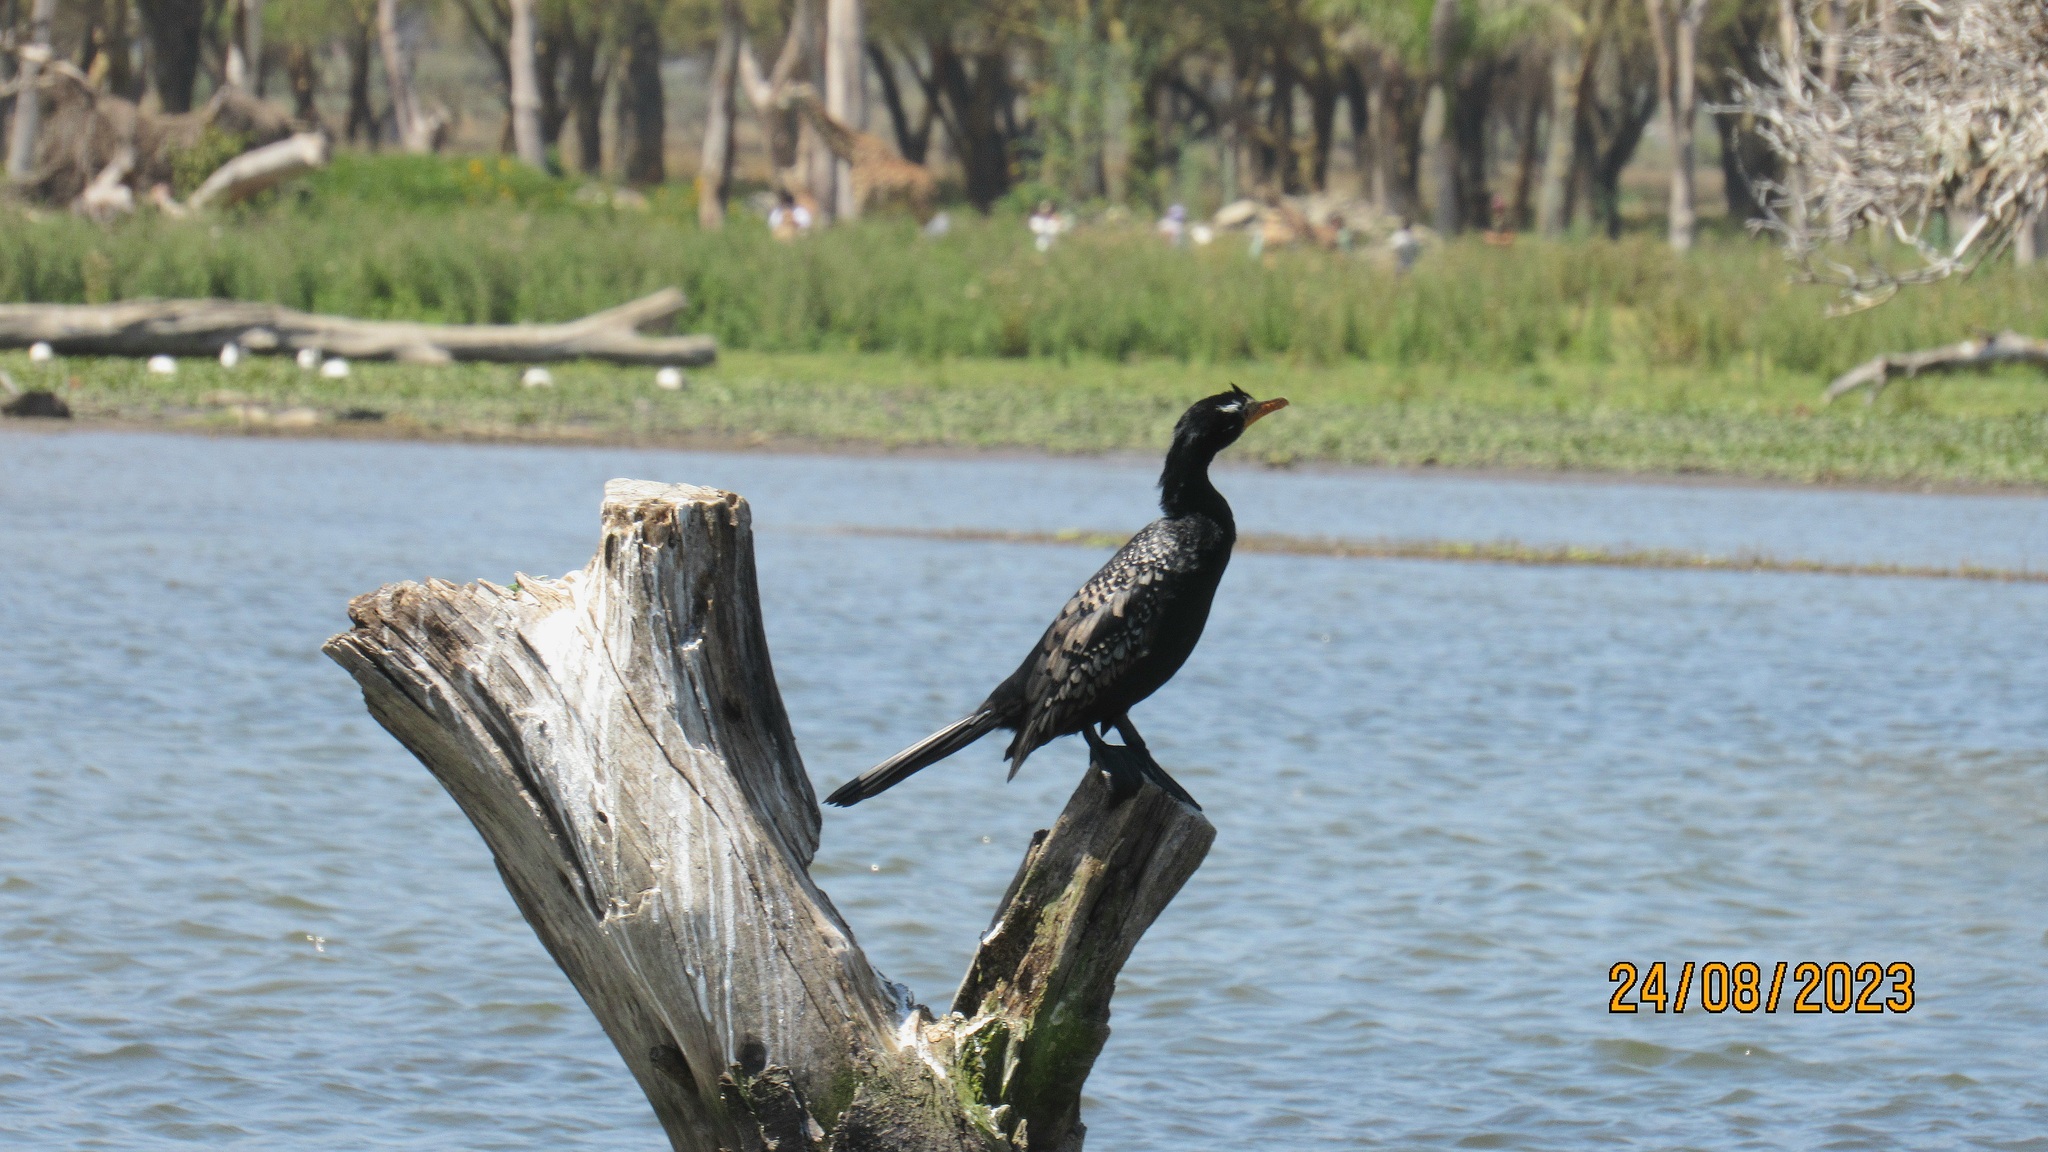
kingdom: Animalia
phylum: Chordata
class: Aves
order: Suliformes
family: Phalacrocoracidae
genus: Microcarbo
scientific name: Microcarbo africanus
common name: Long-tailed cormorant
